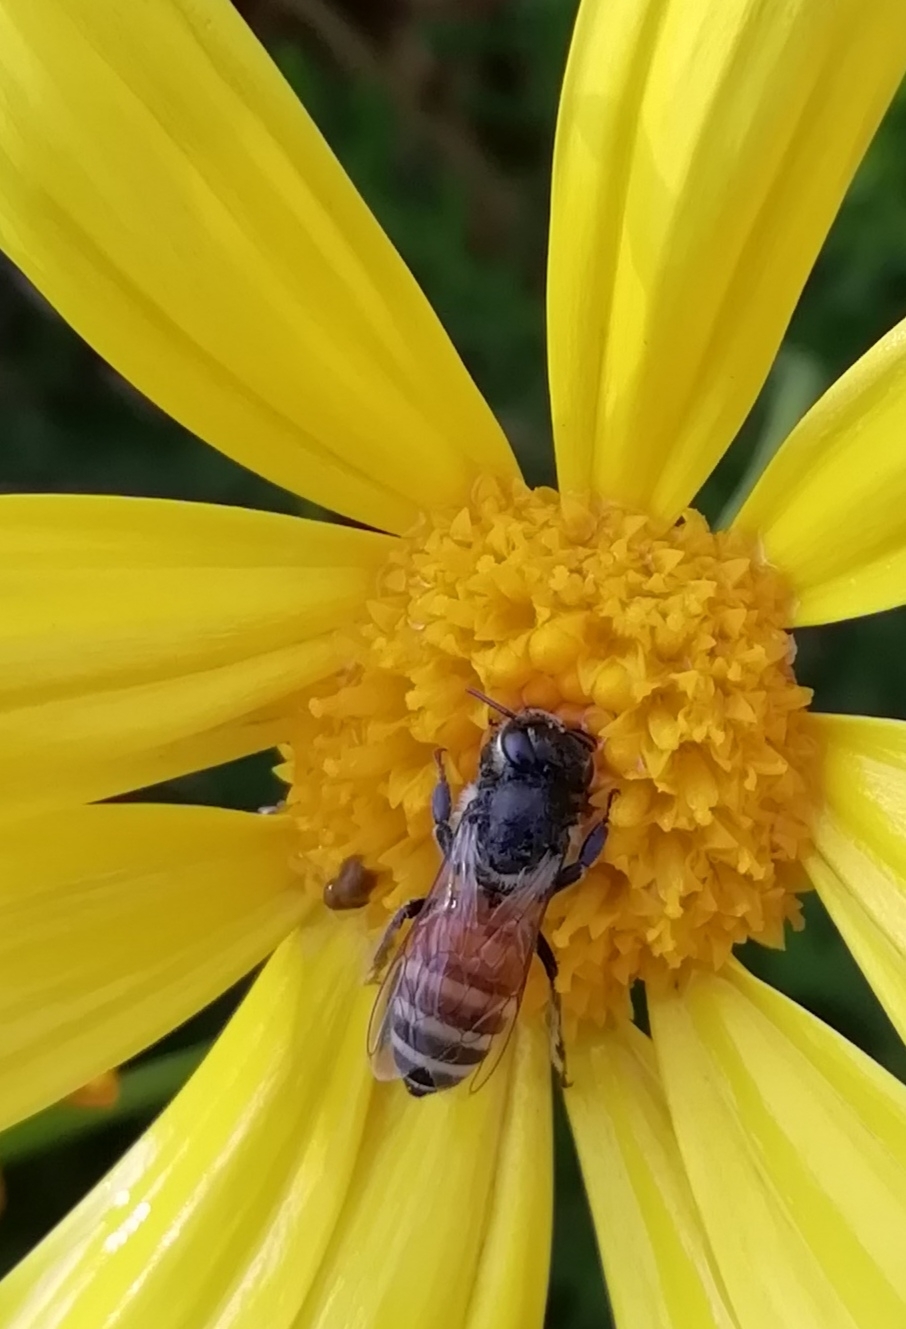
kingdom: Animalia
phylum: Arthropoda
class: Insecta
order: Hymenoptera
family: Apidae
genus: Apis
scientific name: Apis florea
